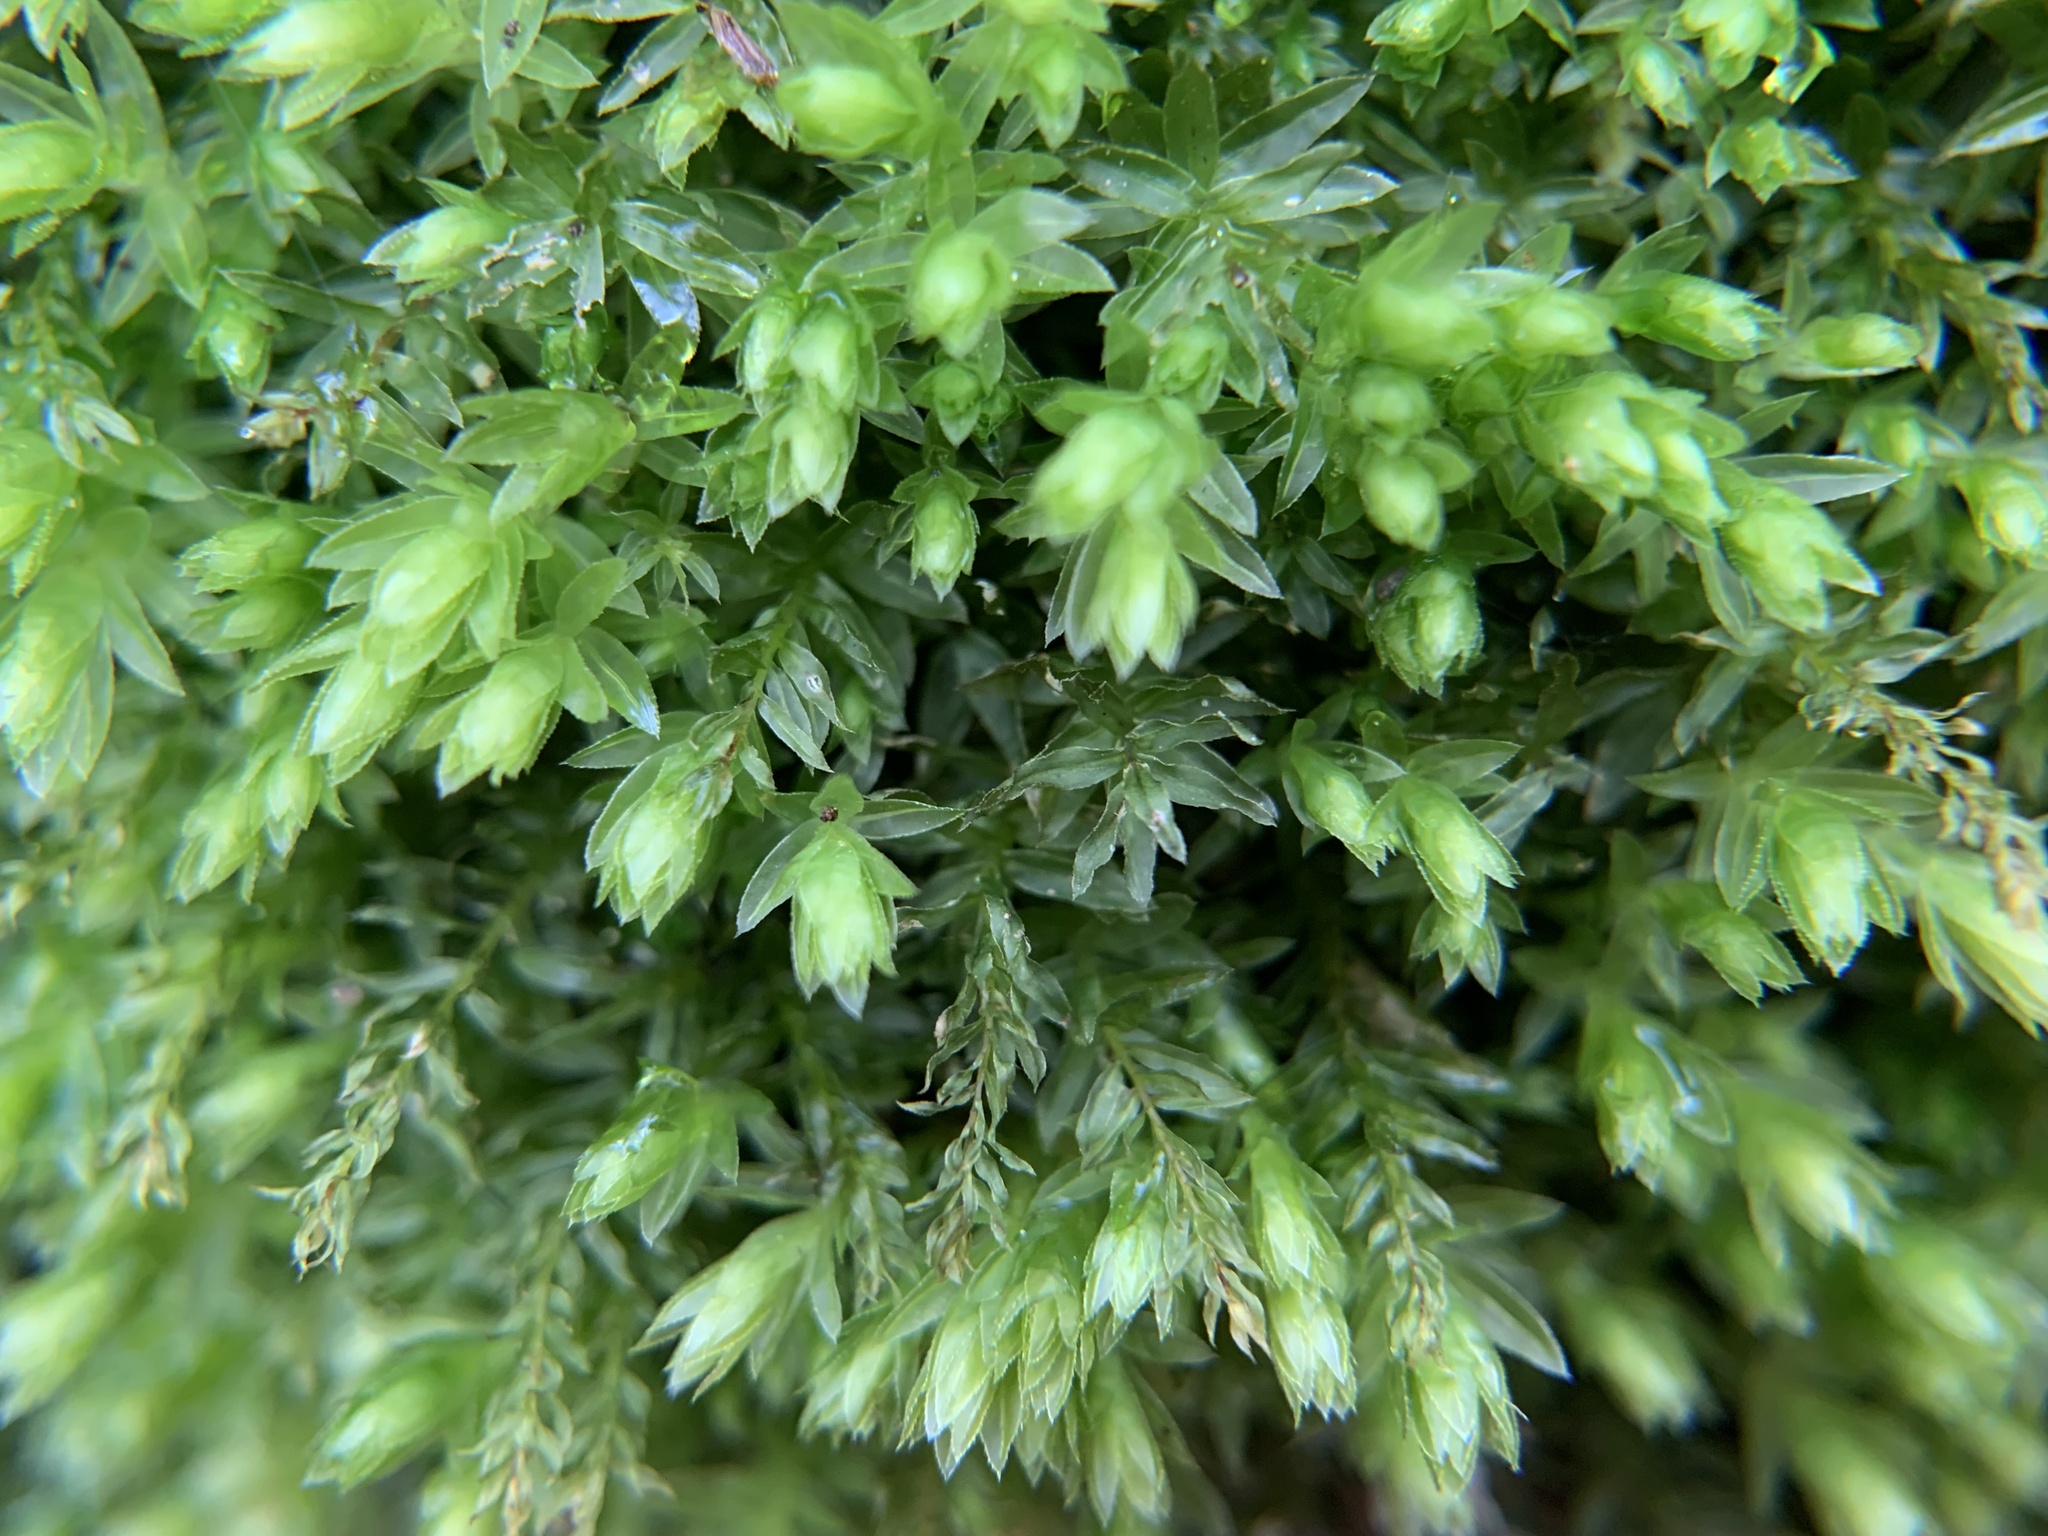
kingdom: Plantae
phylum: Bryophyta
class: Bryopsida
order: Bryales
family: Mniaceae
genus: Mnium
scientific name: Mnium hornum
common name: Swan's-neck leafy moss
